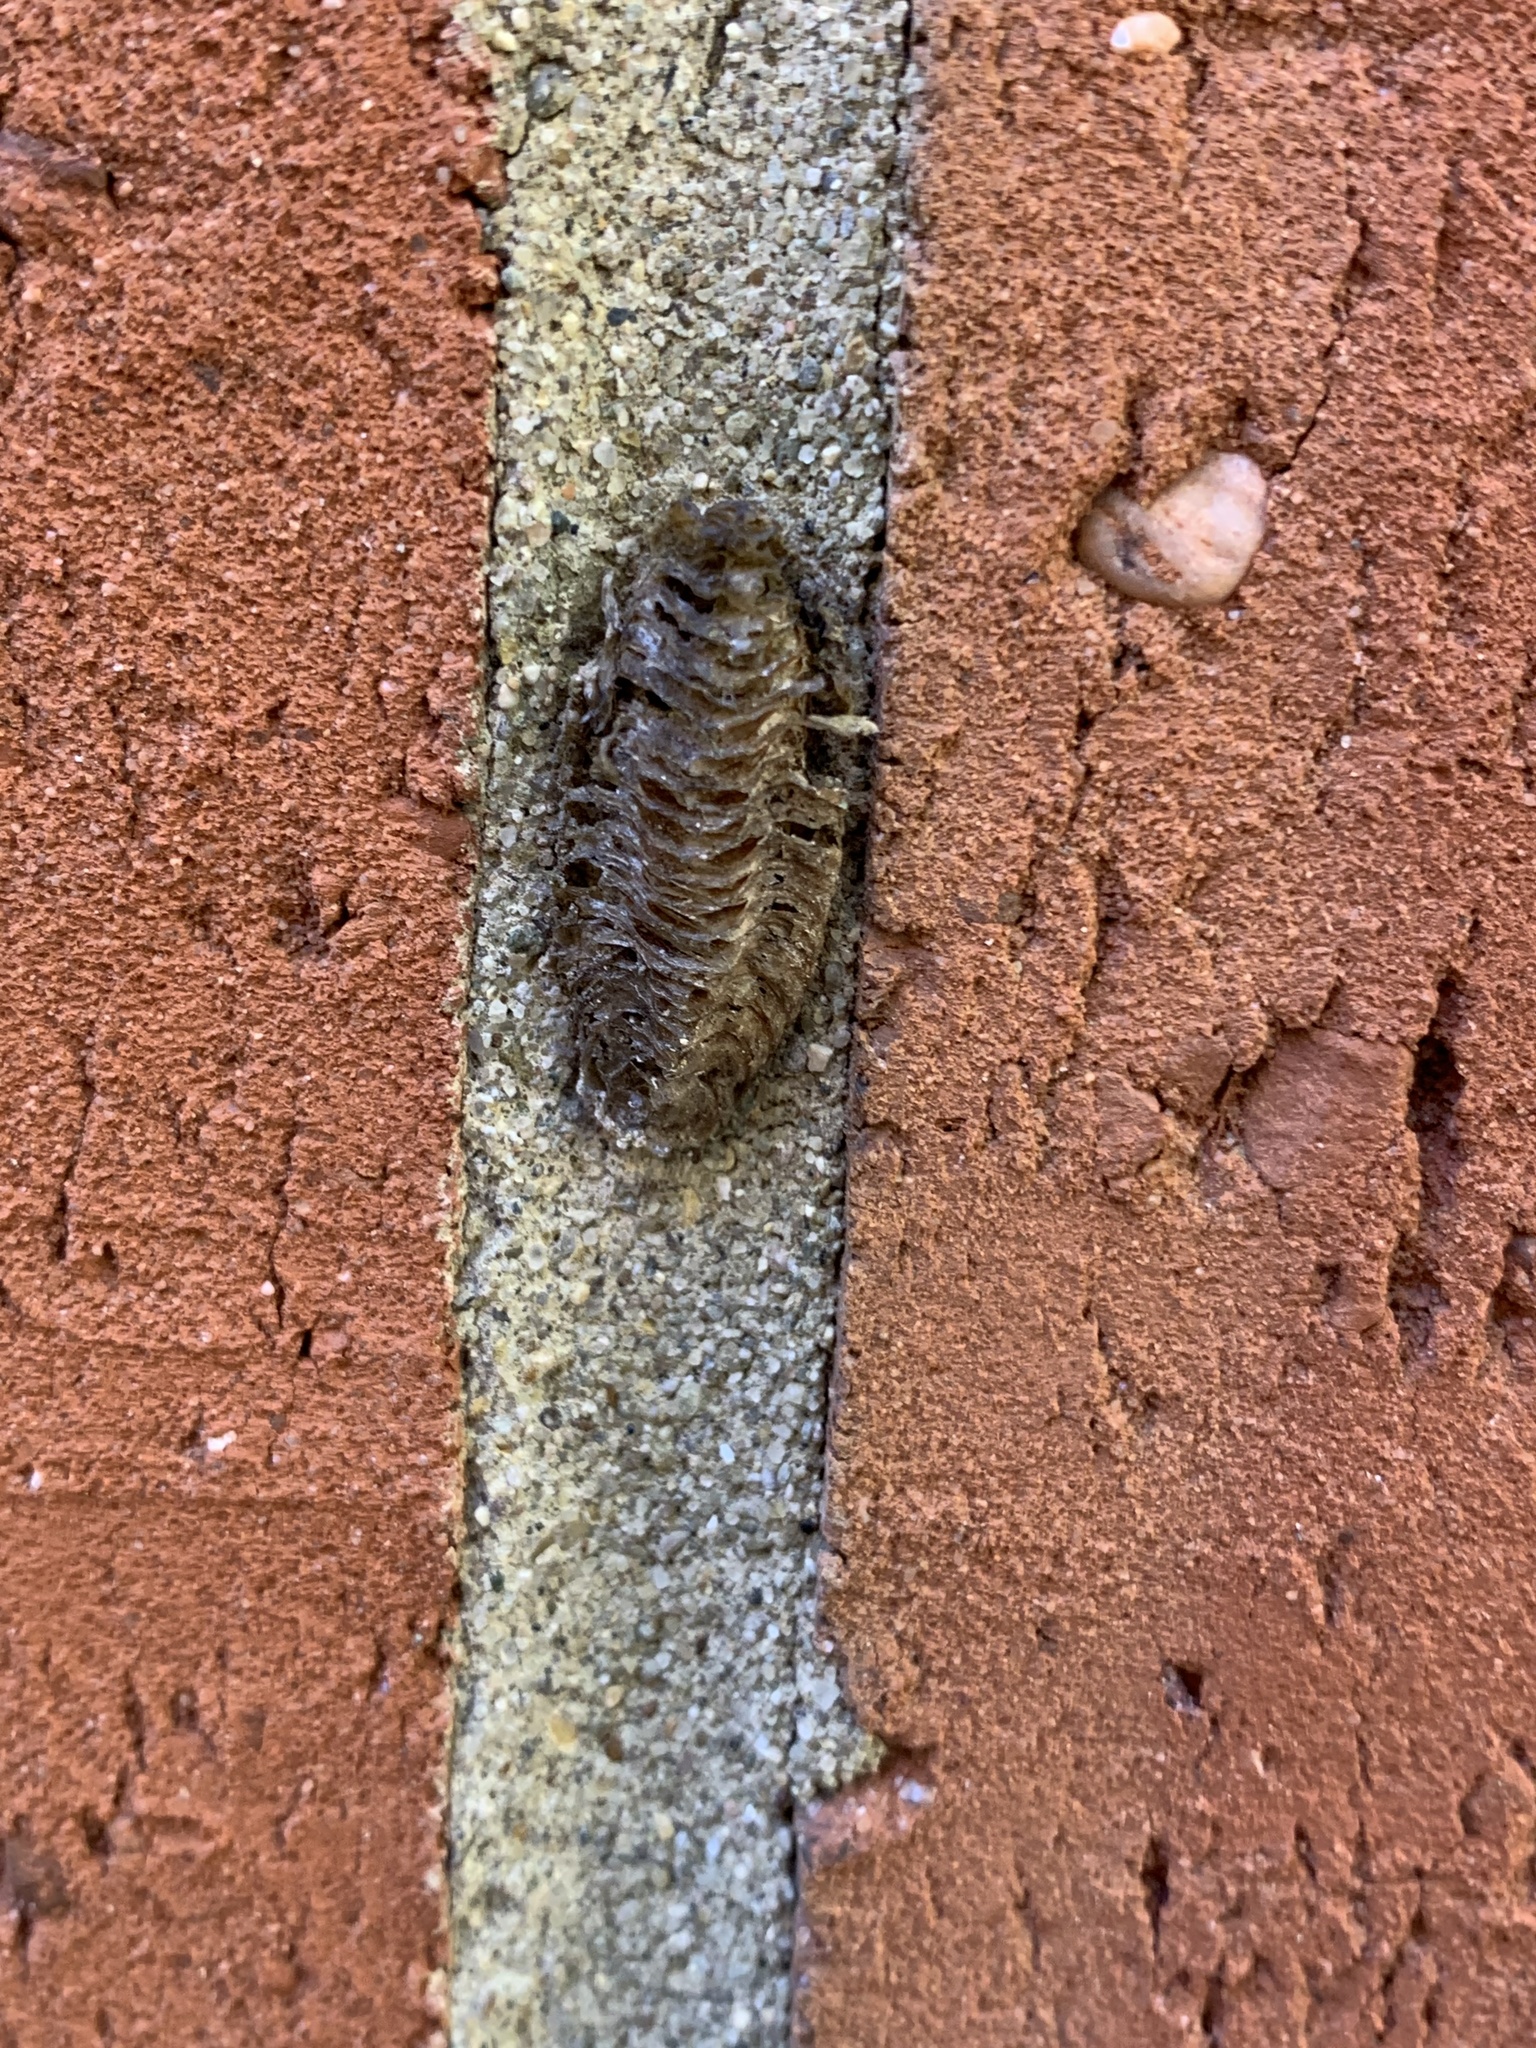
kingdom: Animalia
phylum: Arthropoda
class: Insecta
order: Mantodea
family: Mantidae
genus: Stagmomantis
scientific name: Stagmomantis carolina
